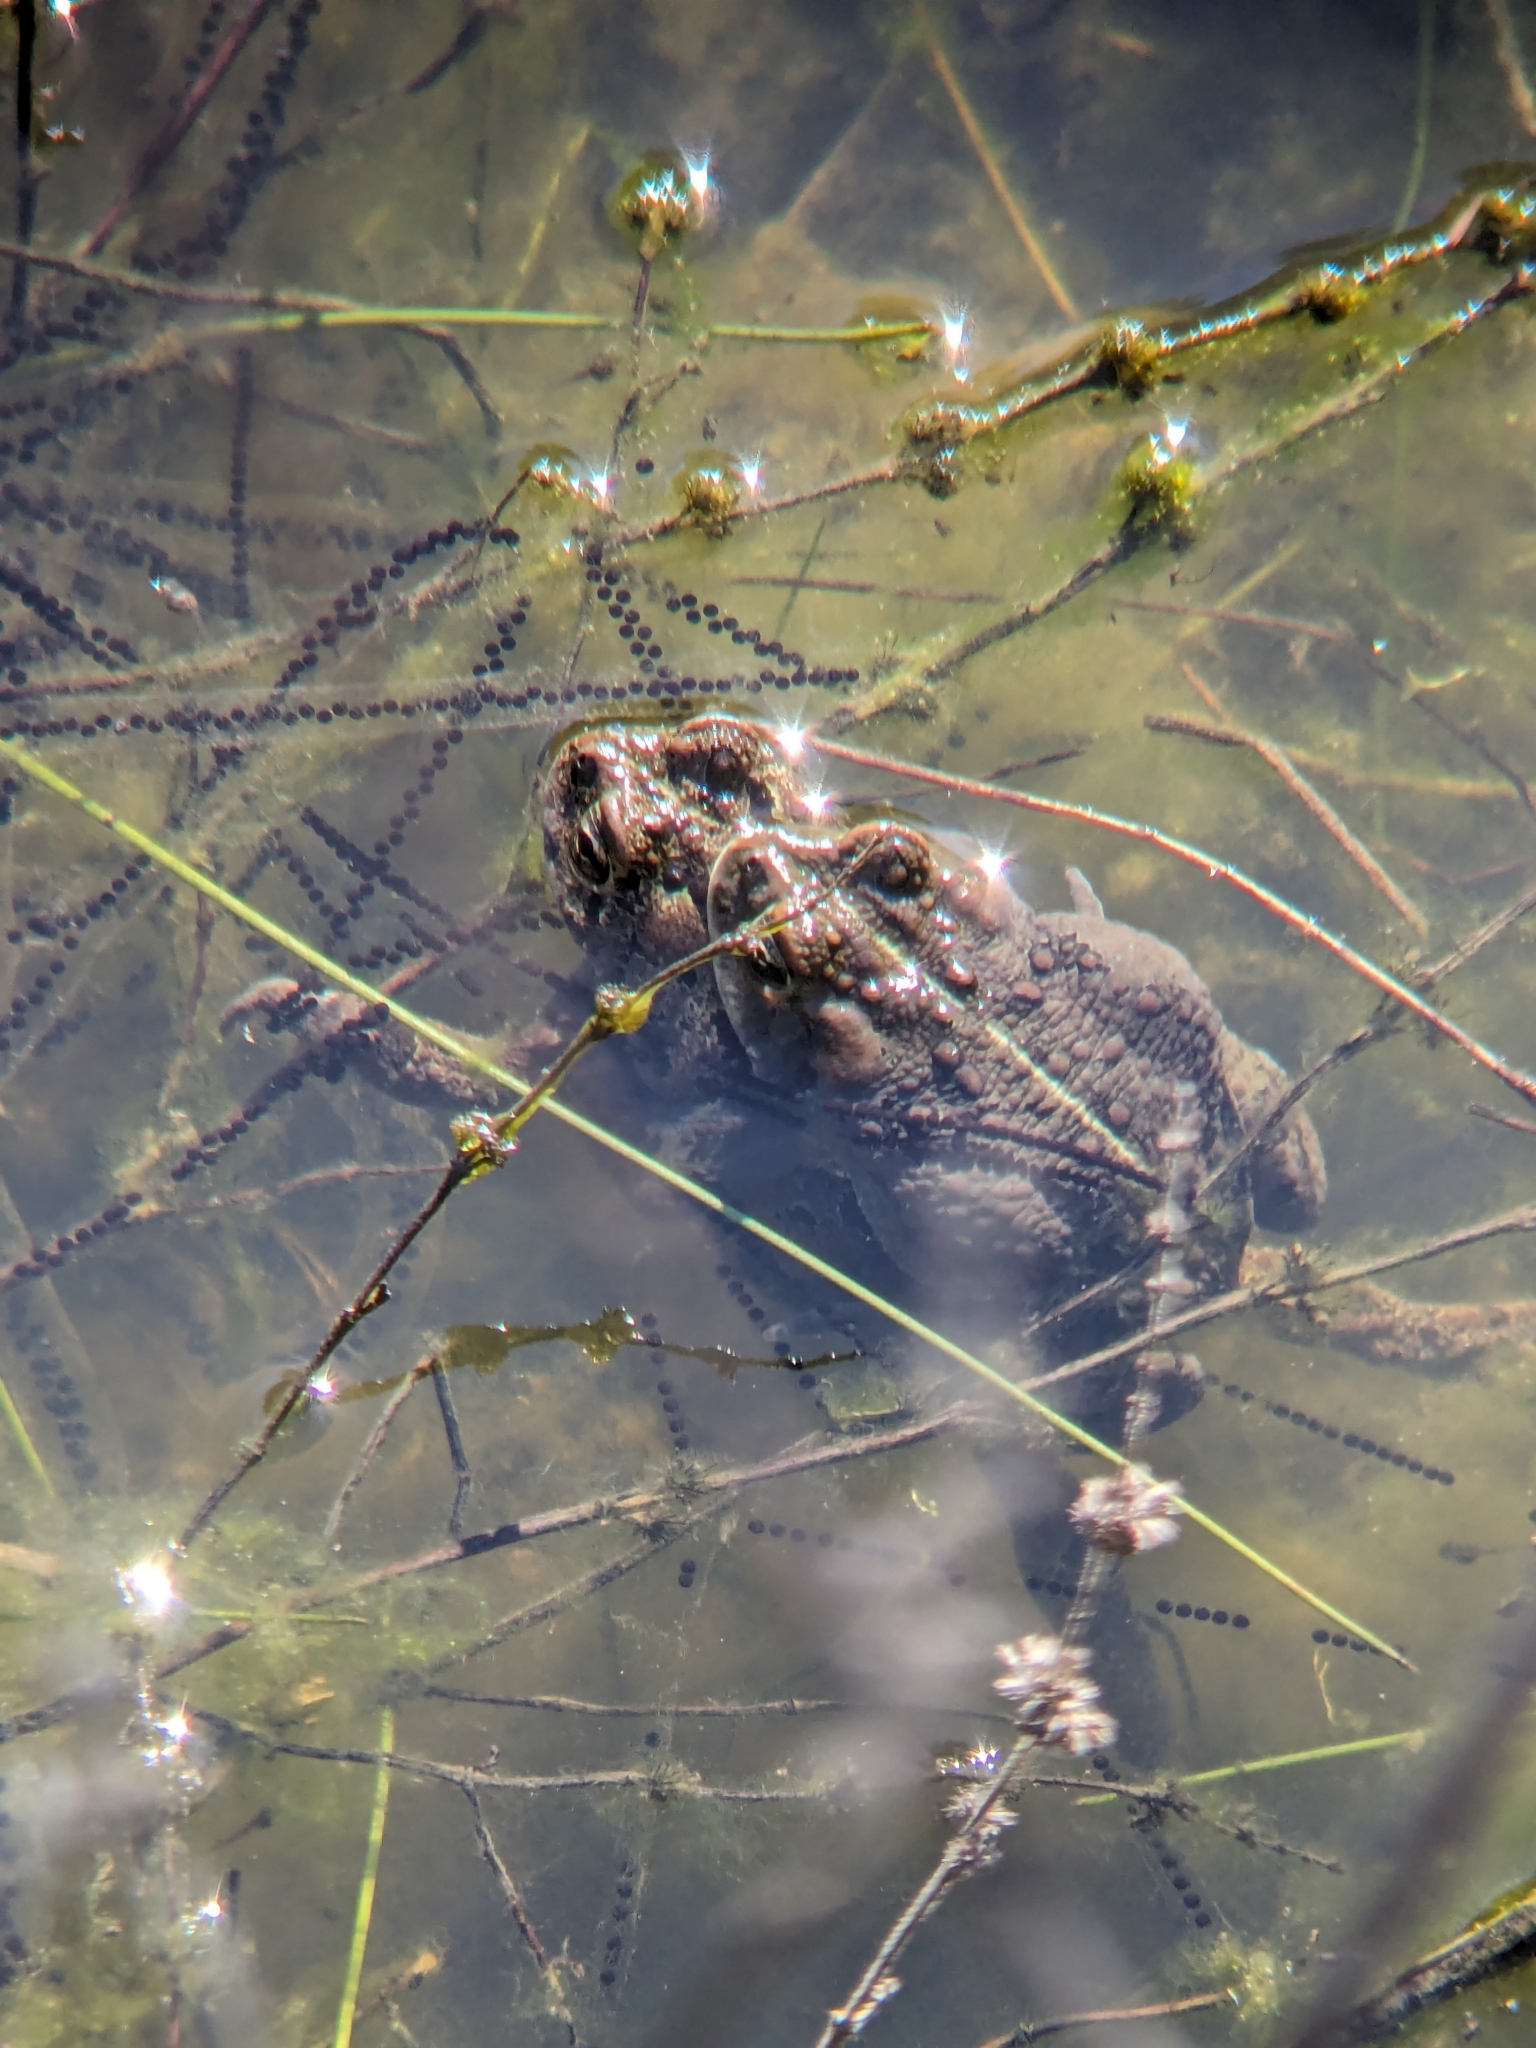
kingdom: Animalia
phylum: Chordata
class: Amphibia
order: Anura
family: Bufonidae
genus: Anaxyrus
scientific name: Anaxyrus boreas
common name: Western toad
